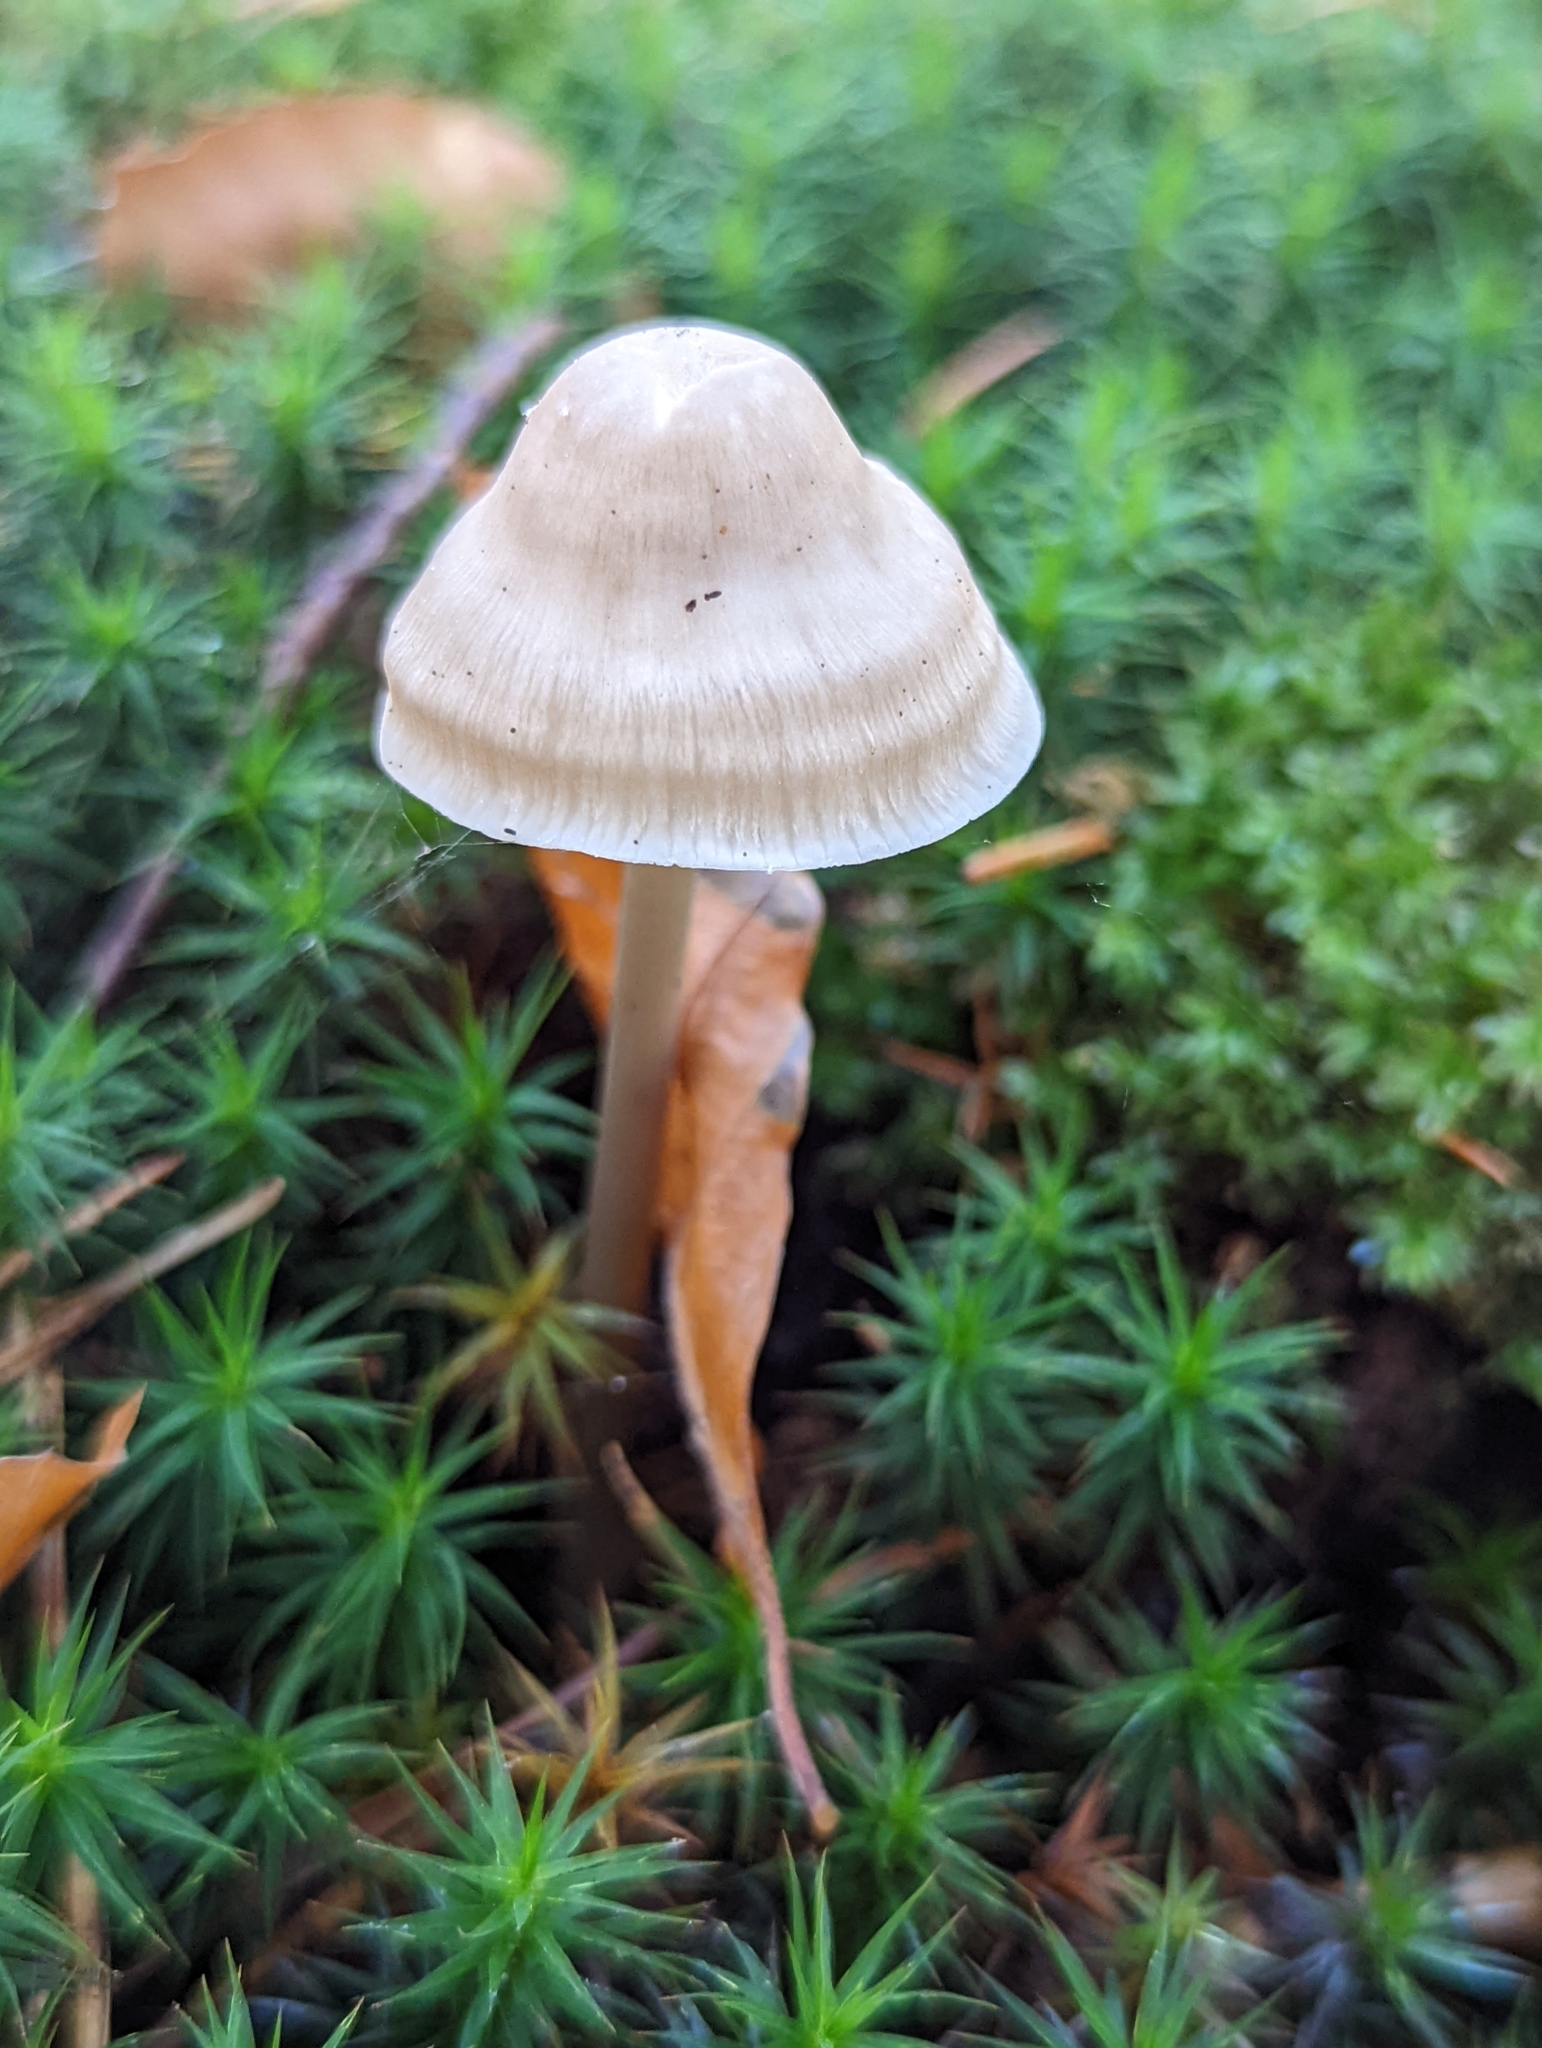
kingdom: Fungi
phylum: Basidiomycota
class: Agaricomycetes
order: Agaricales
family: Mycenaceae
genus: Mycena
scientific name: Mycena galericulata
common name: Bonnet mycena
